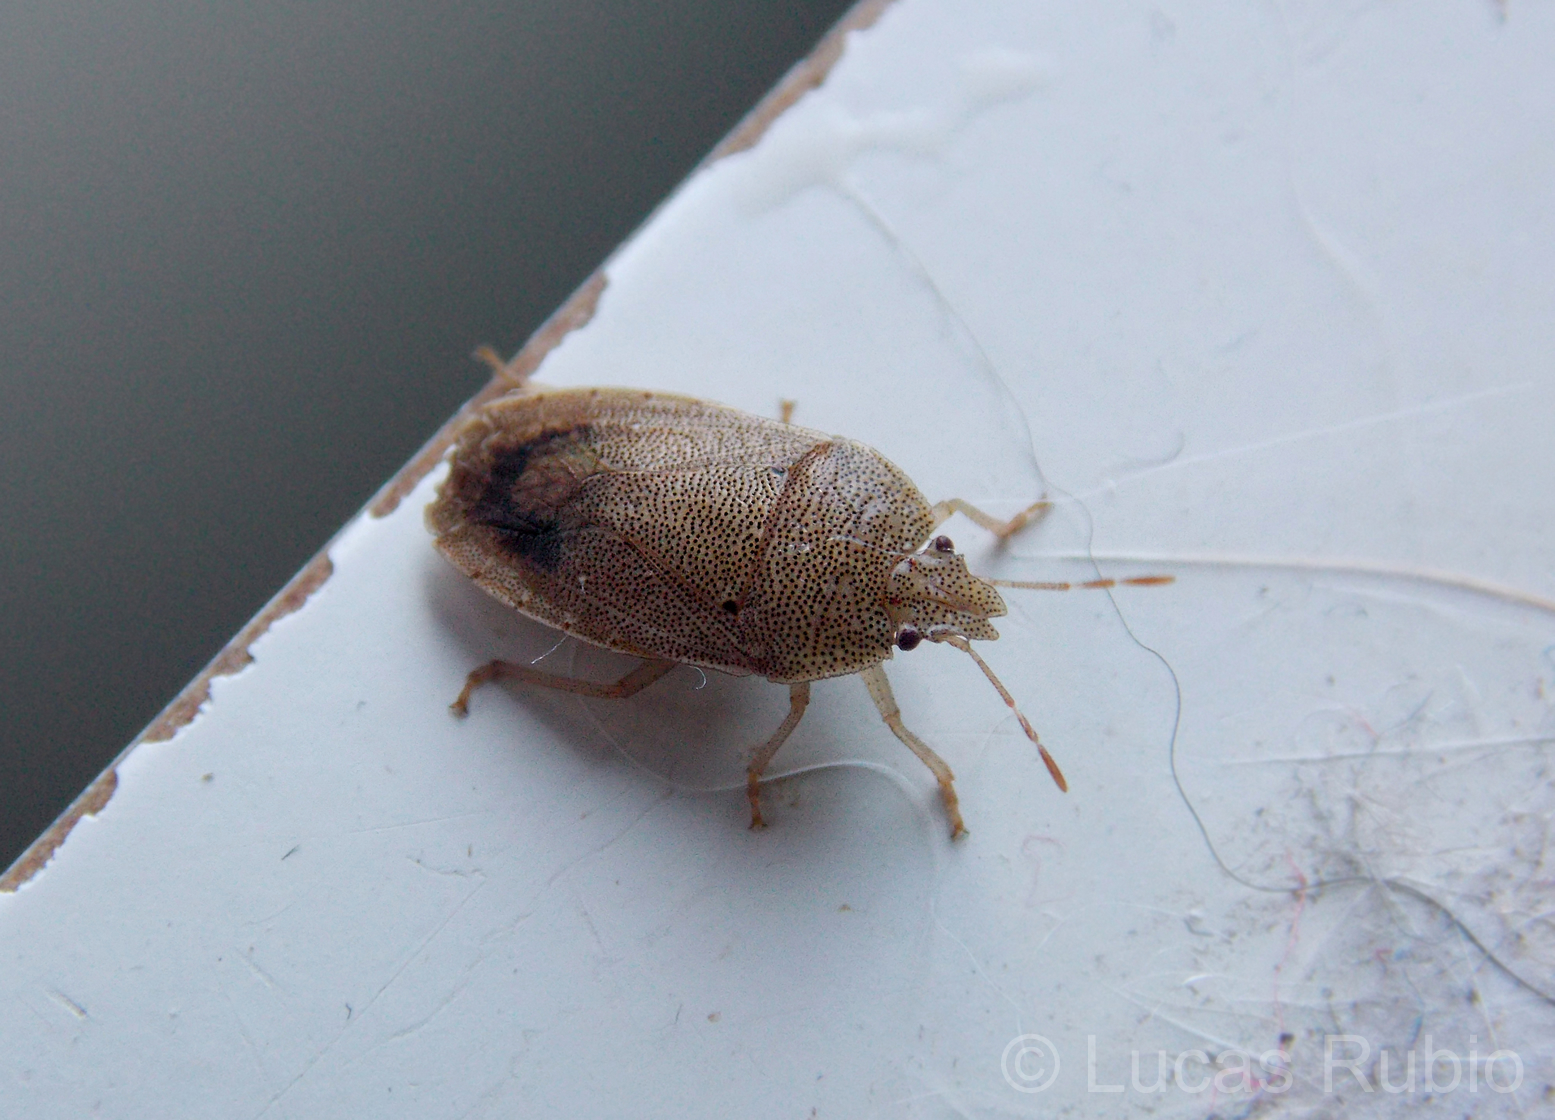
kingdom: Animalia
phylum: Arthropoda
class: Insecta
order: Hemiptera
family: Pentatomidae
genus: Hypatropis
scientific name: Hypatropis australis
